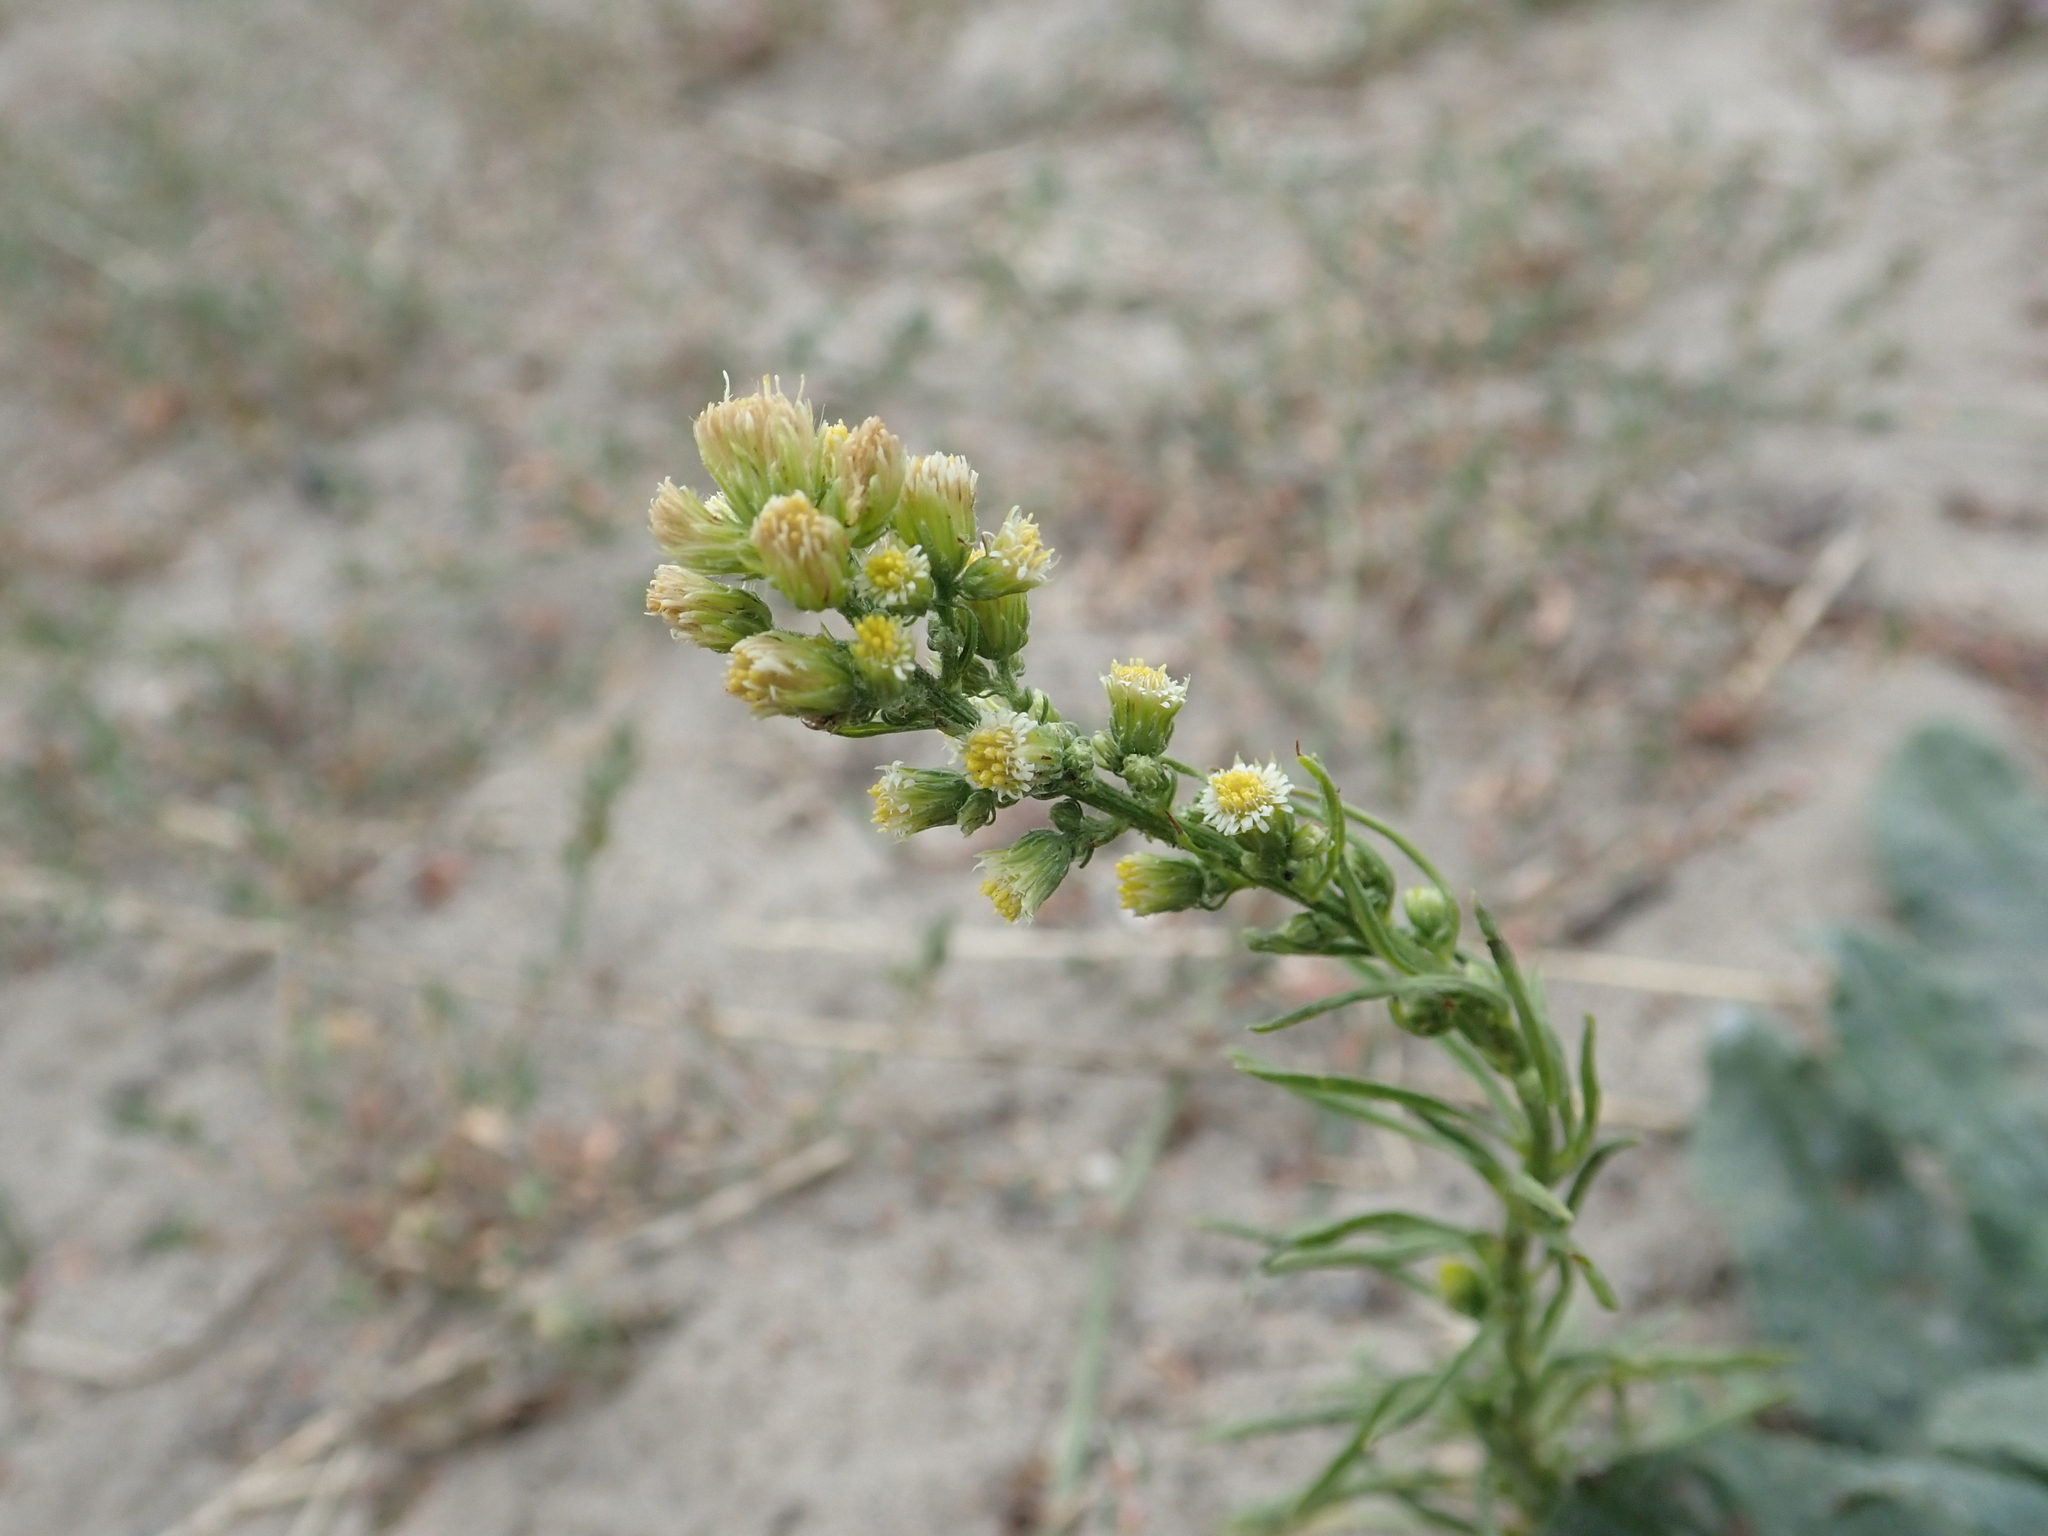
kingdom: Plantae
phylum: Tracheophyta
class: Magnoliopsida
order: Asterales
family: Asteraceae
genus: Erigeron
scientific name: Erigeron canadensis
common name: Canadian fleabane
